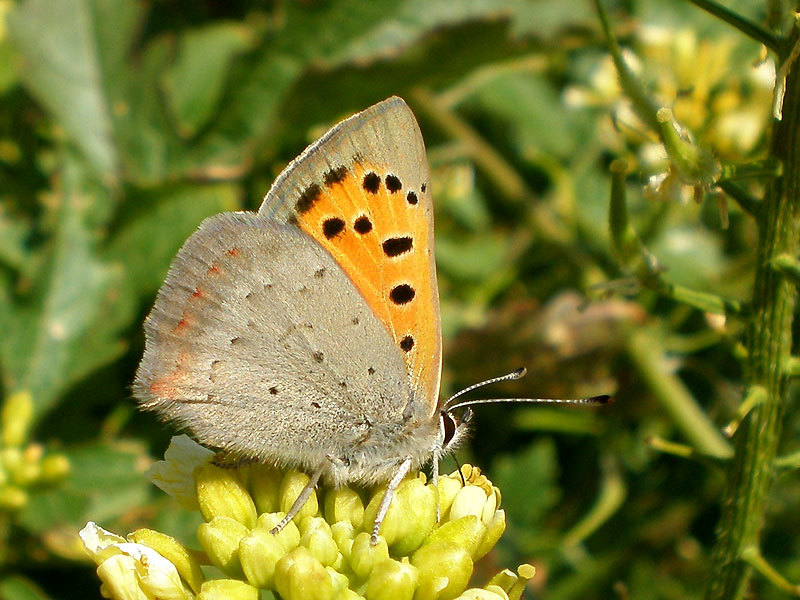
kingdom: Animalia
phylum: Arthropoda
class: Insecta
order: Lepidoptera
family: Lycaenidae
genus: Lycaena
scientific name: Lycaena phlaeas
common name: Small copper
